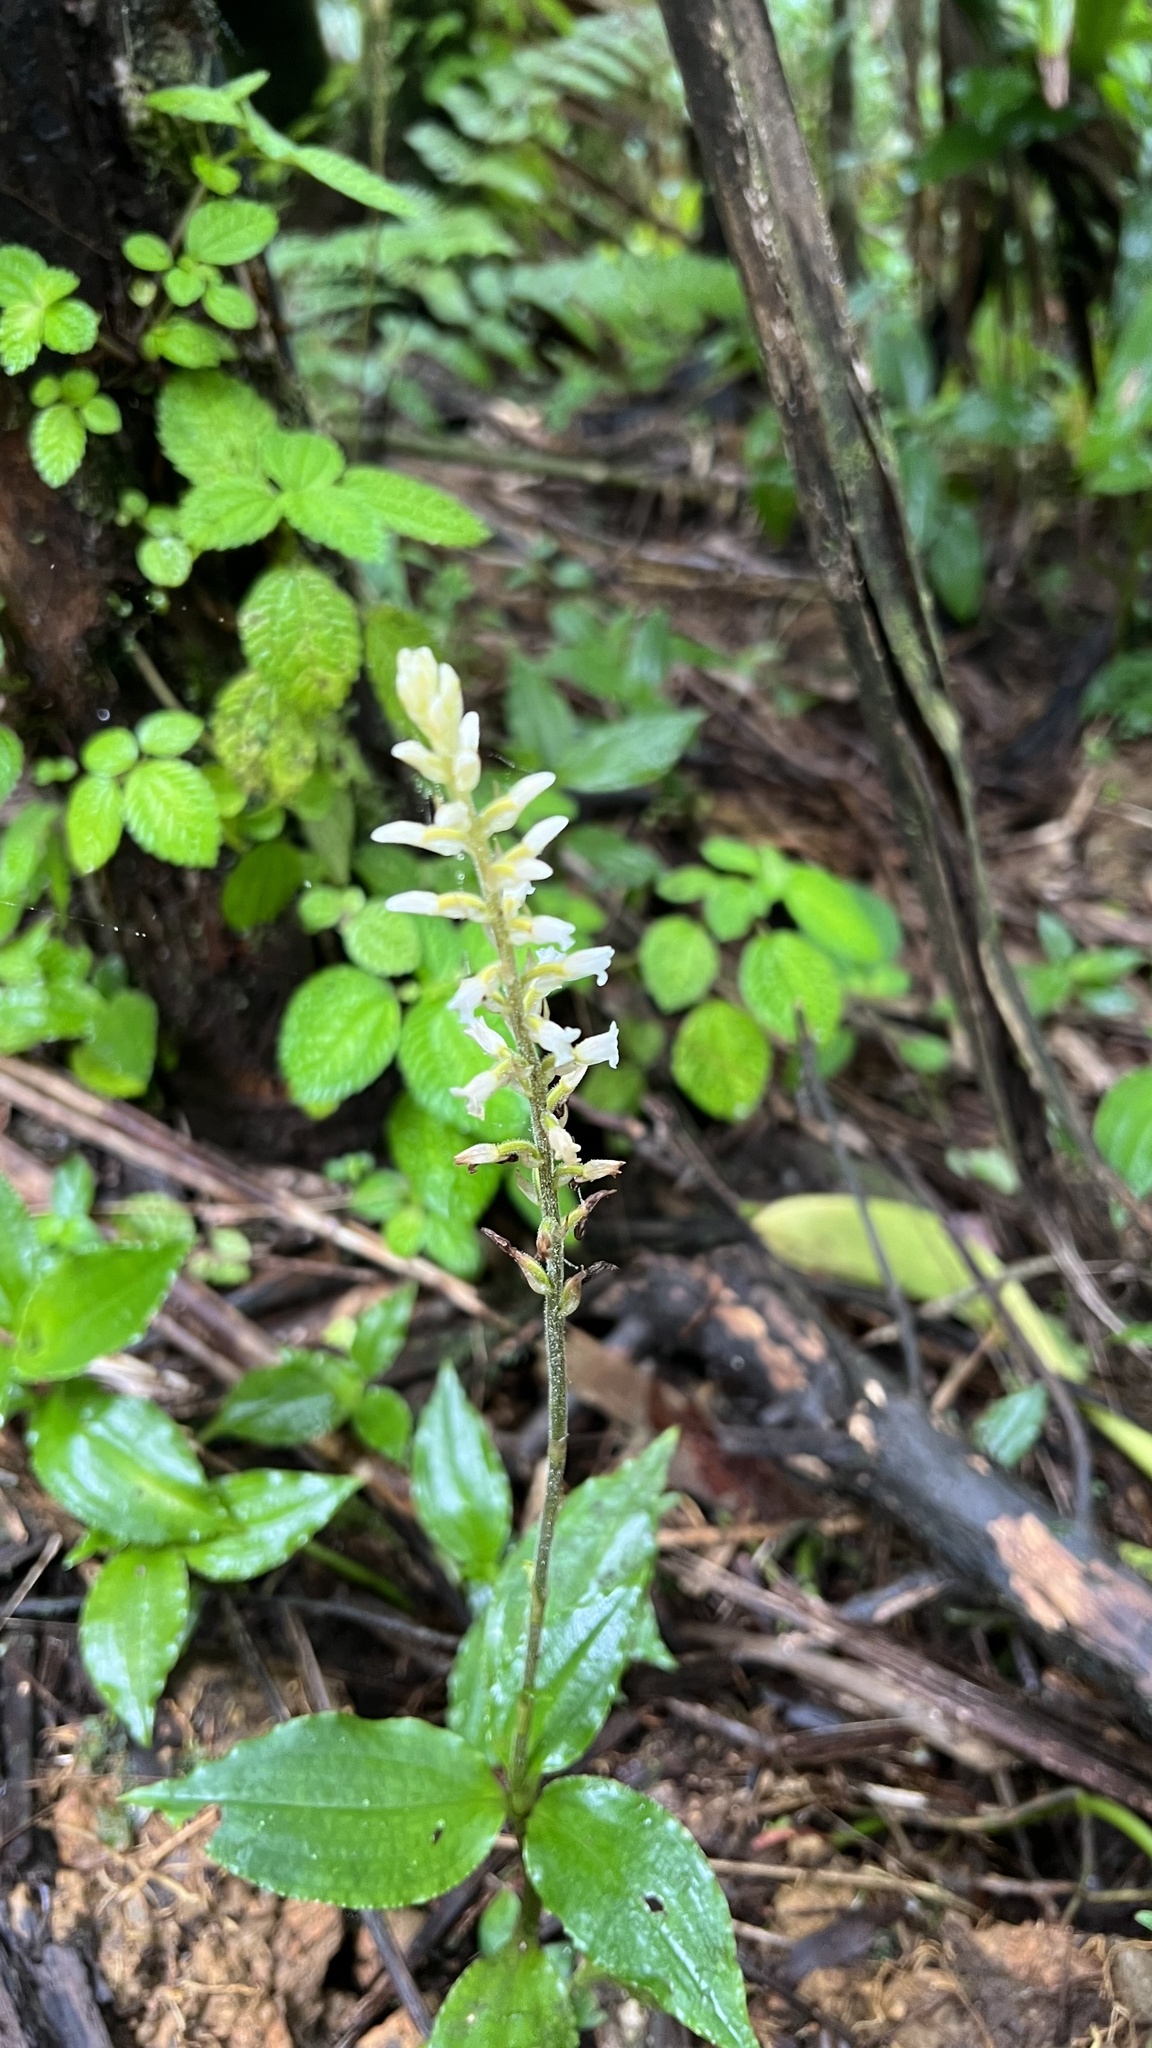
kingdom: Plantae
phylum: Tracheophyta
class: Liliopsida
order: Asparagales
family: Orchidaceae
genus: Microchilus
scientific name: Microchilus plantagineus
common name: Caribbean false helmetorchid
